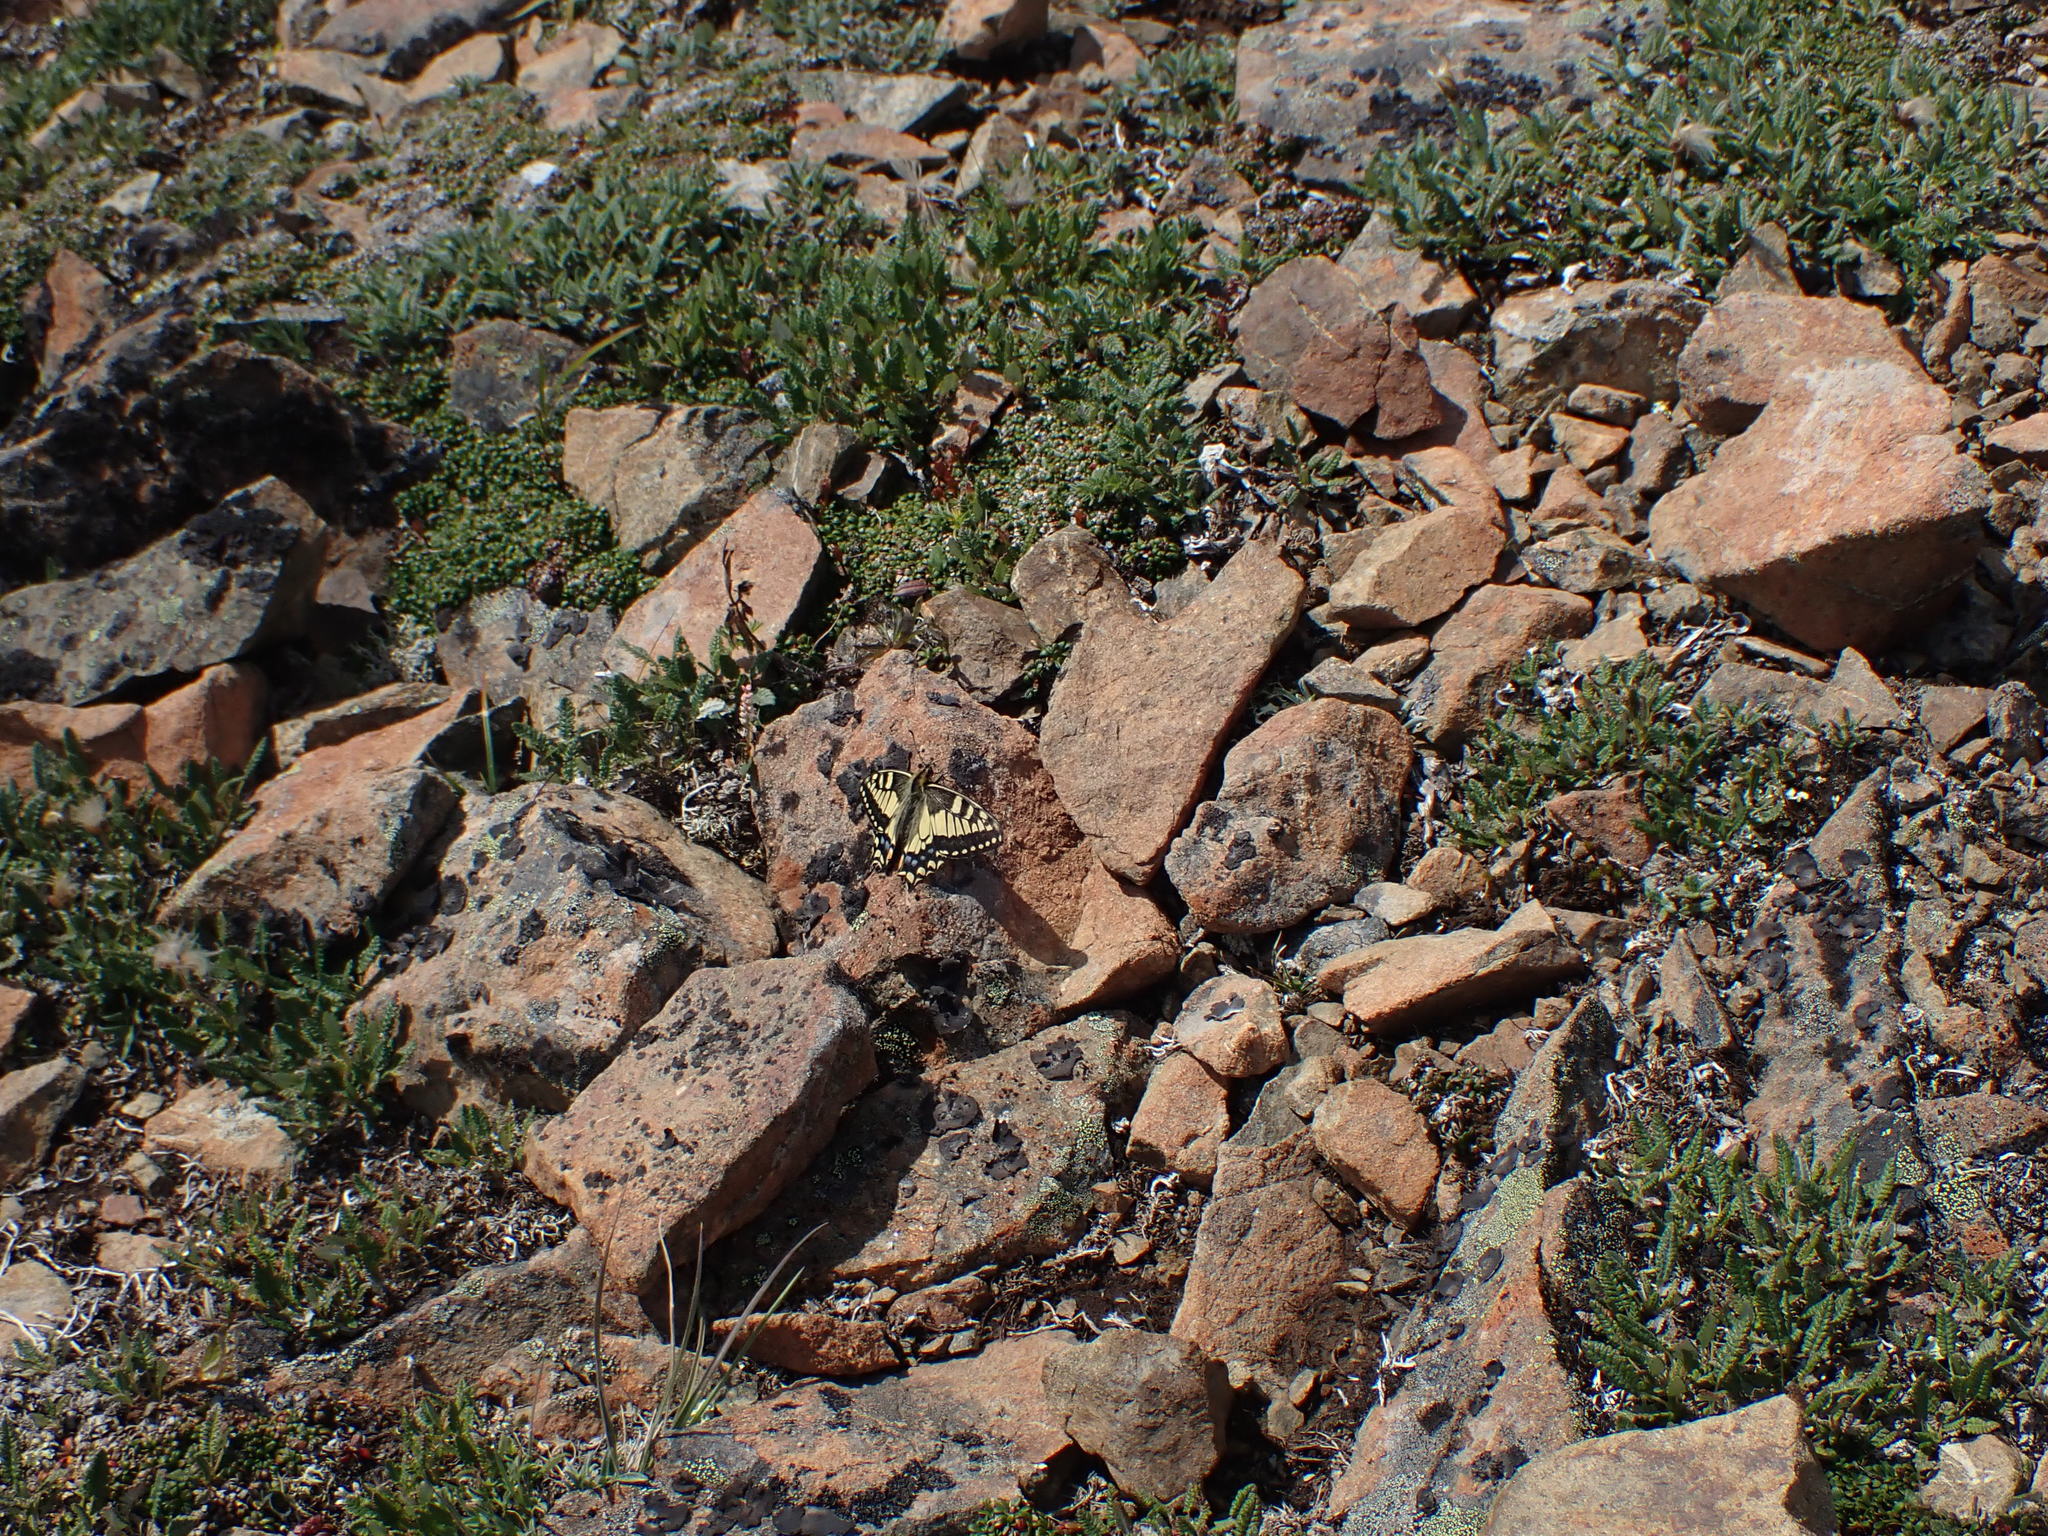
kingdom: Animalia
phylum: Arthropoda
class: Insecta
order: Lepidoptera
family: Papilionidae
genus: Papilio
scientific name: Papilio machaon
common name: Swallowtail
